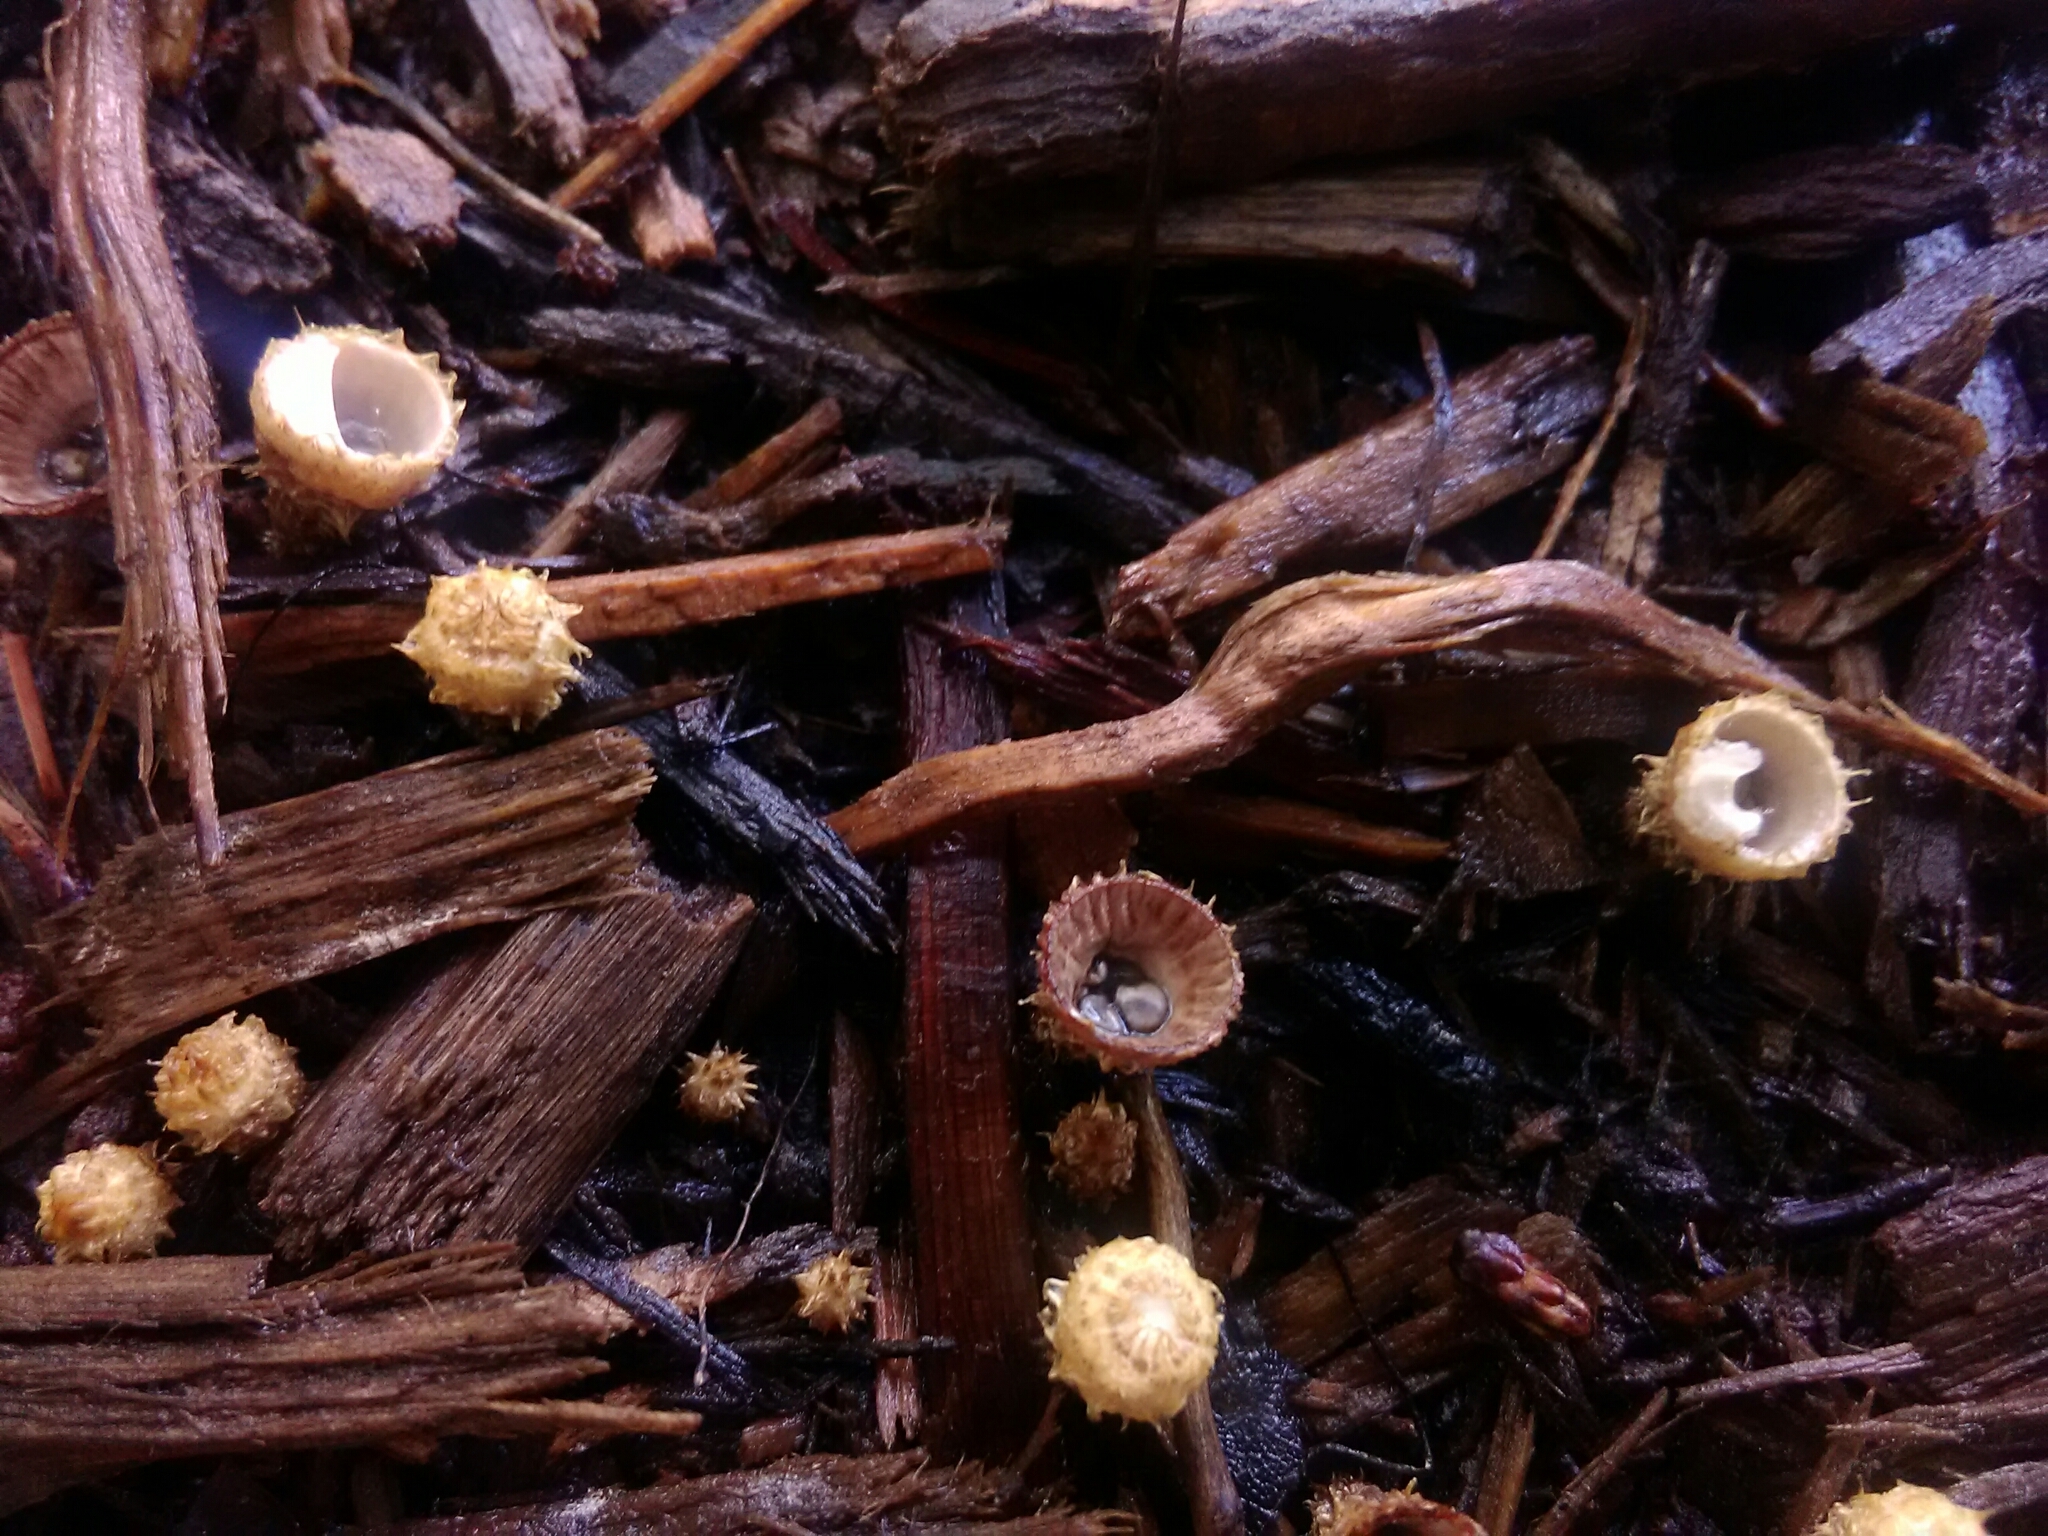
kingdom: Fungi
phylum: Basidiomycota
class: Agaricomycetes
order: Agaricales
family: Agaricaceae
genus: Cyathus
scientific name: Cyathus striatus
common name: Fluted bird's nest
